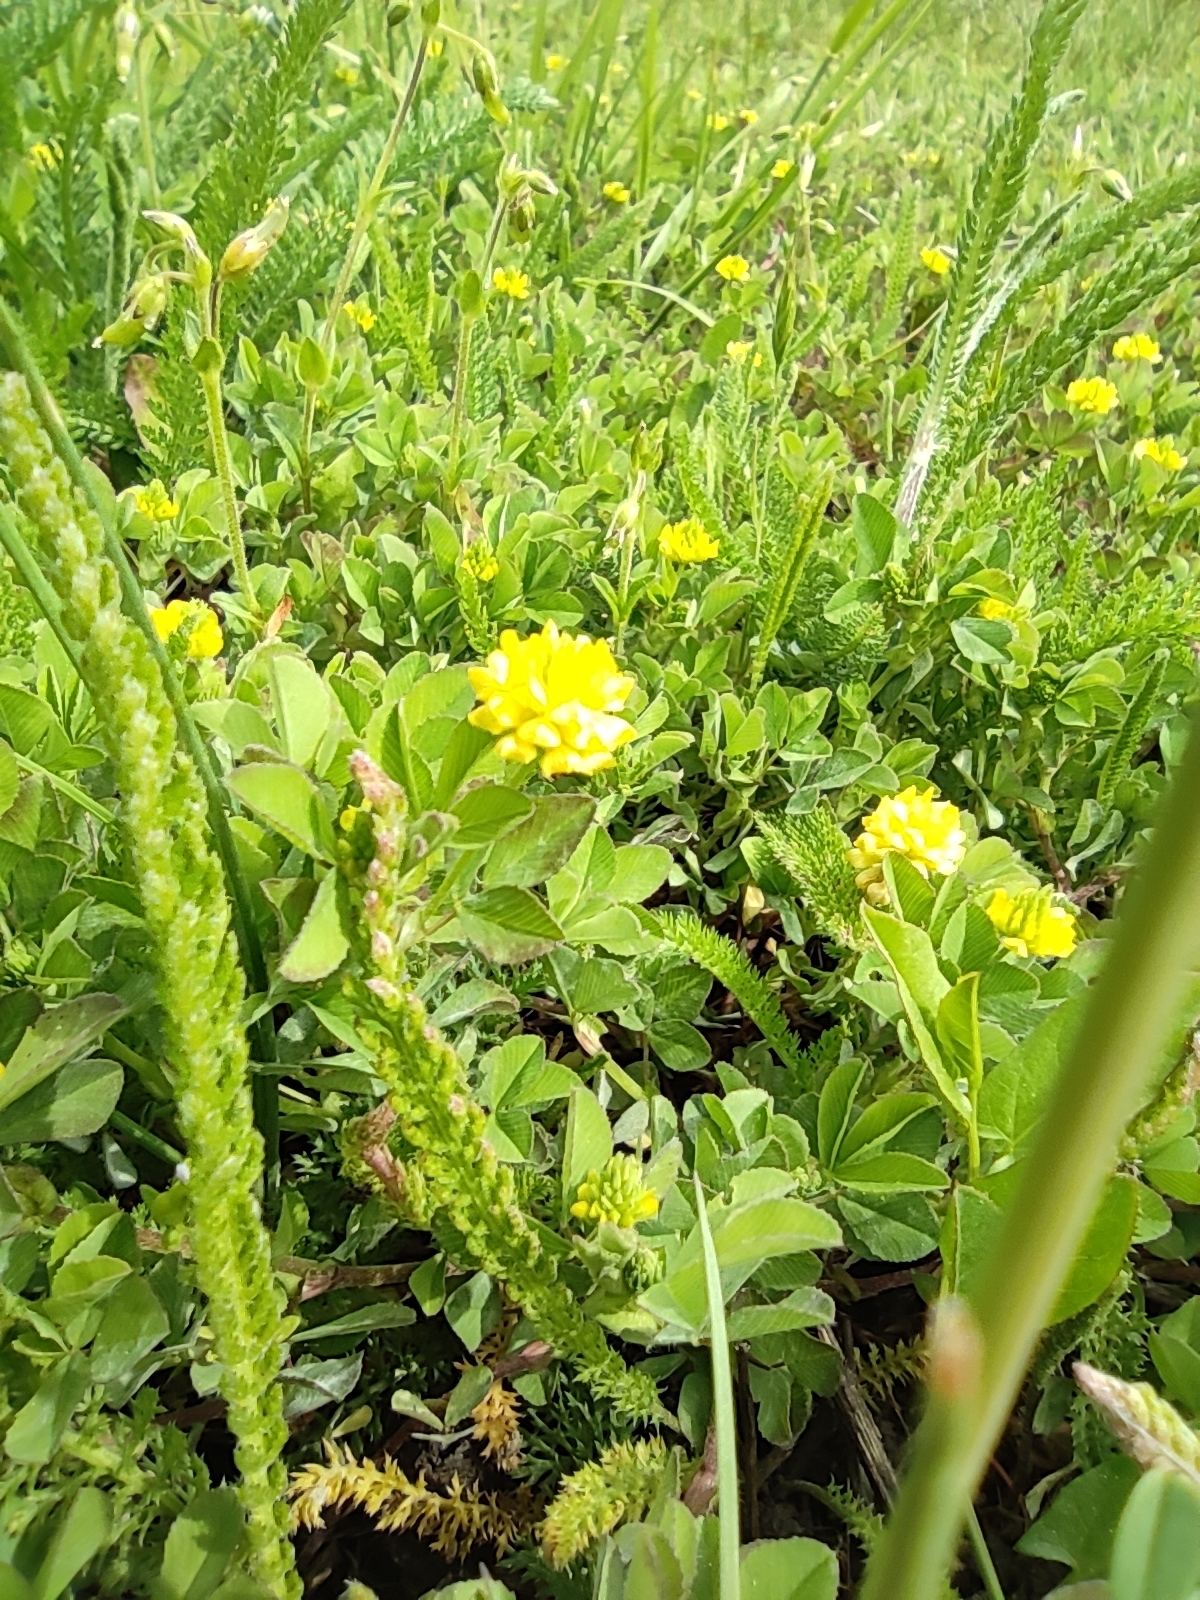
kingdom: Plantae
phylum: Tracheophyta
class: Magnoliopsida
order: Fabales
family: Fabaceae
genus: Trifolium
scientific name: Trifolium campestre
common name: Field clover
